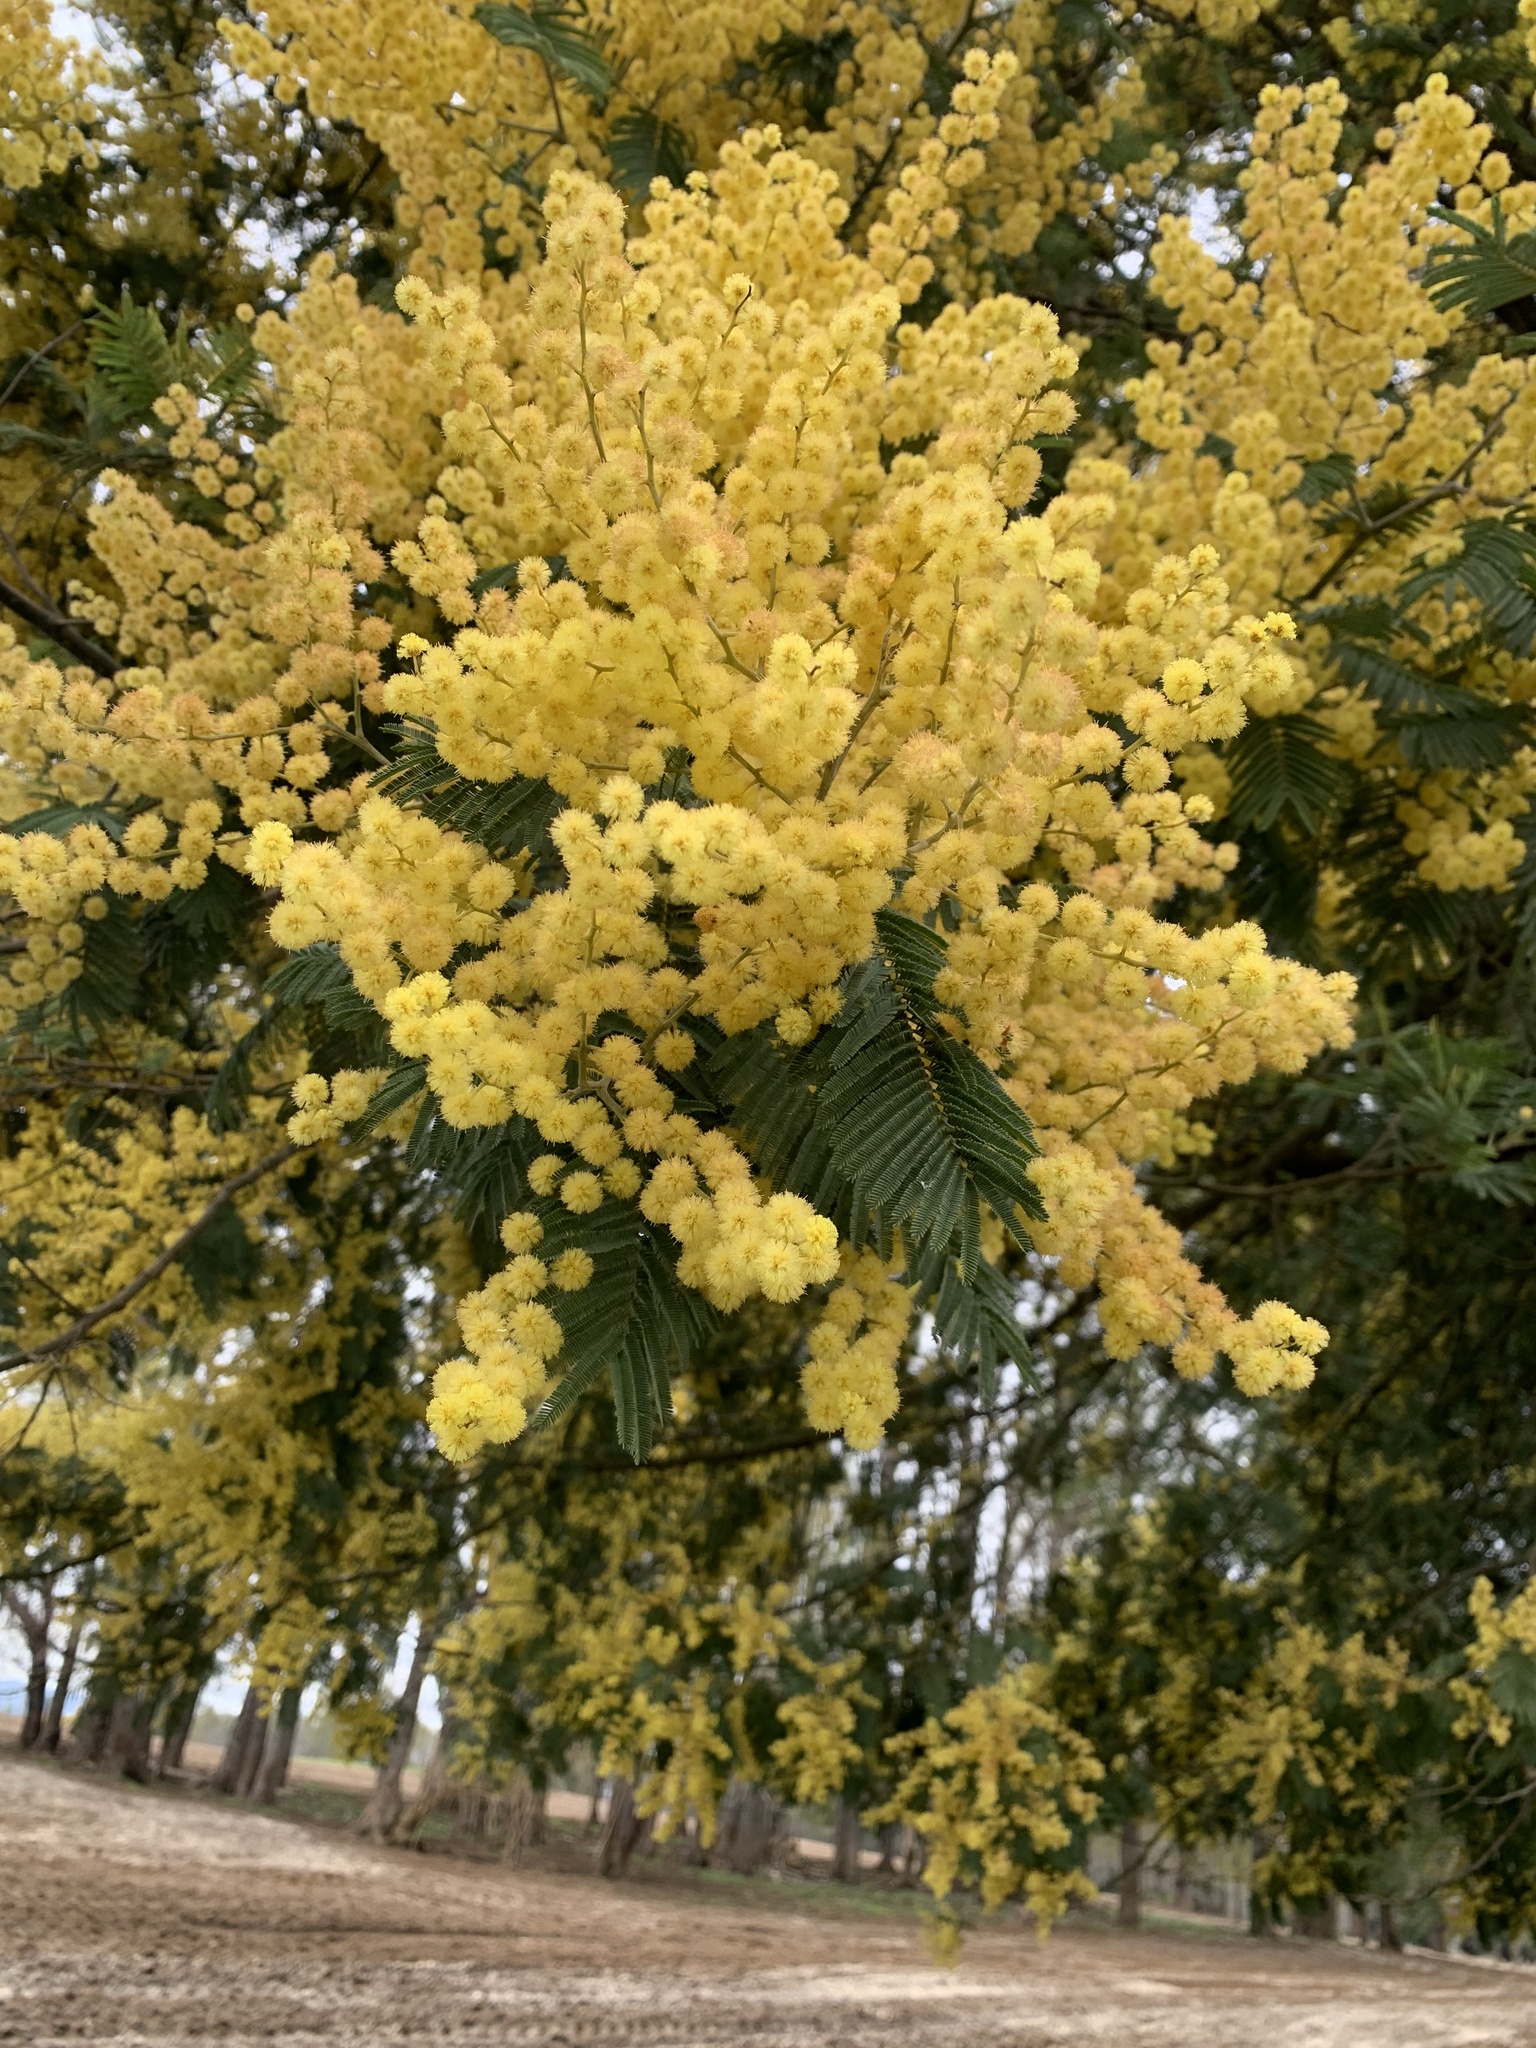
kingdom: Plantae
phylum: Tracheophyta
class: Magnoliopsida
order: Fabales
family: Fabaceae
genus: Acacia
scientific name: Acacia dealbata
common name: Silver wattle
